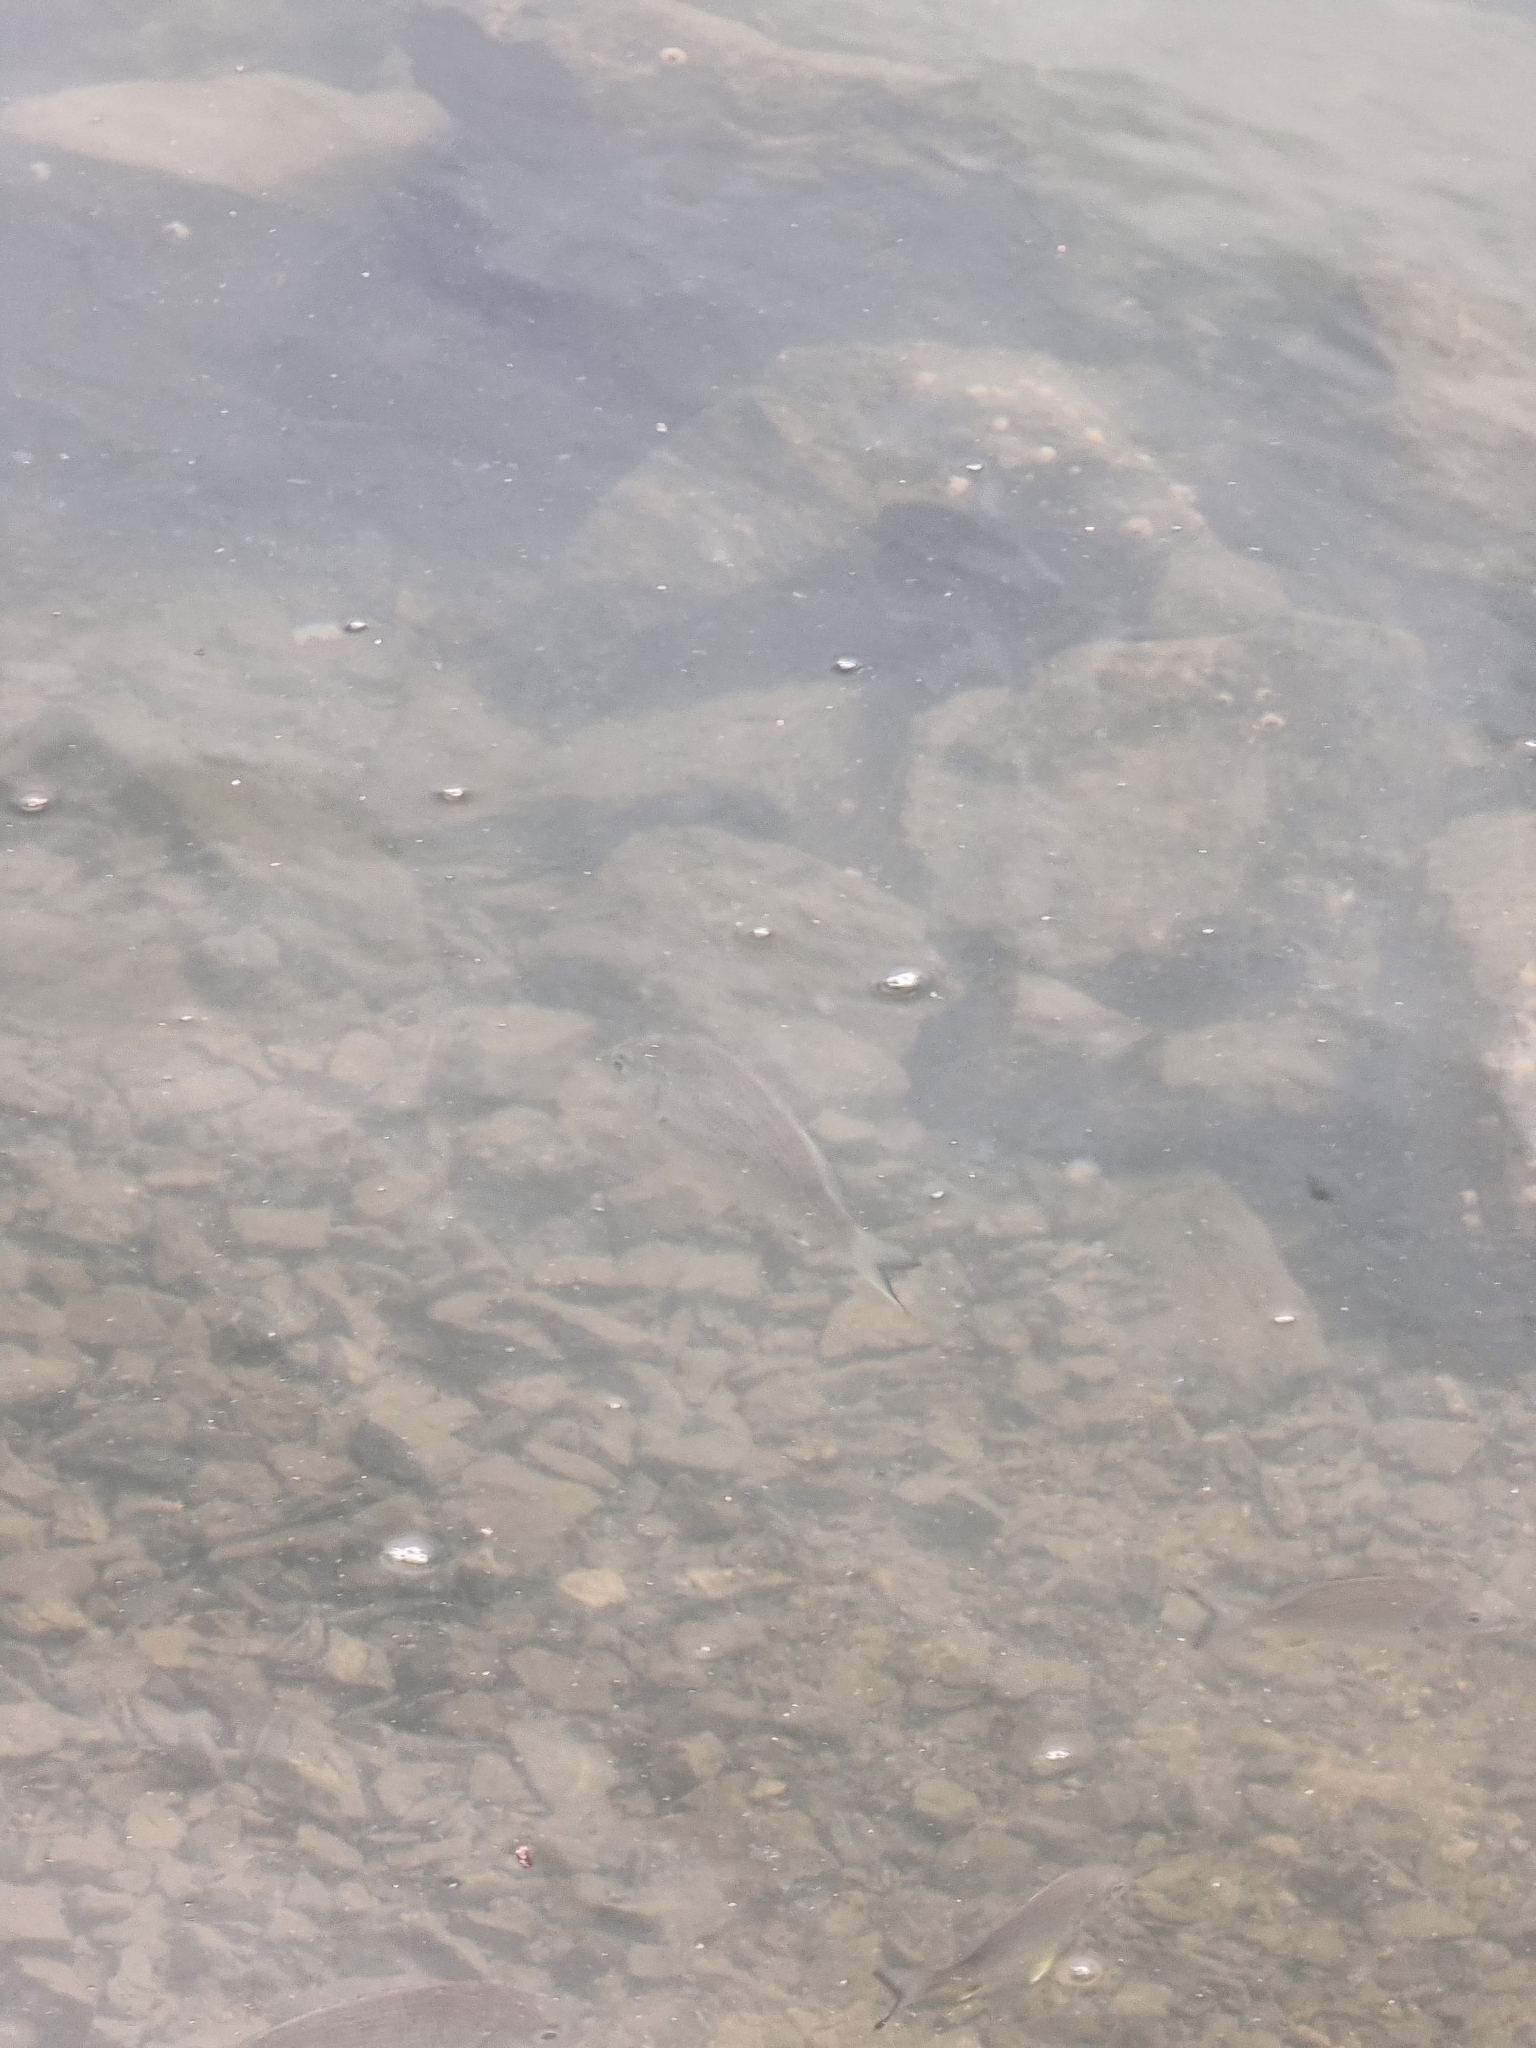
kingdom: Animalia
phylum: Chordata
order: Perciformes
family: Sparidae
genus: Acanthopagrus
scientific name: Acanthopagrus australis
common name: Surf bream
